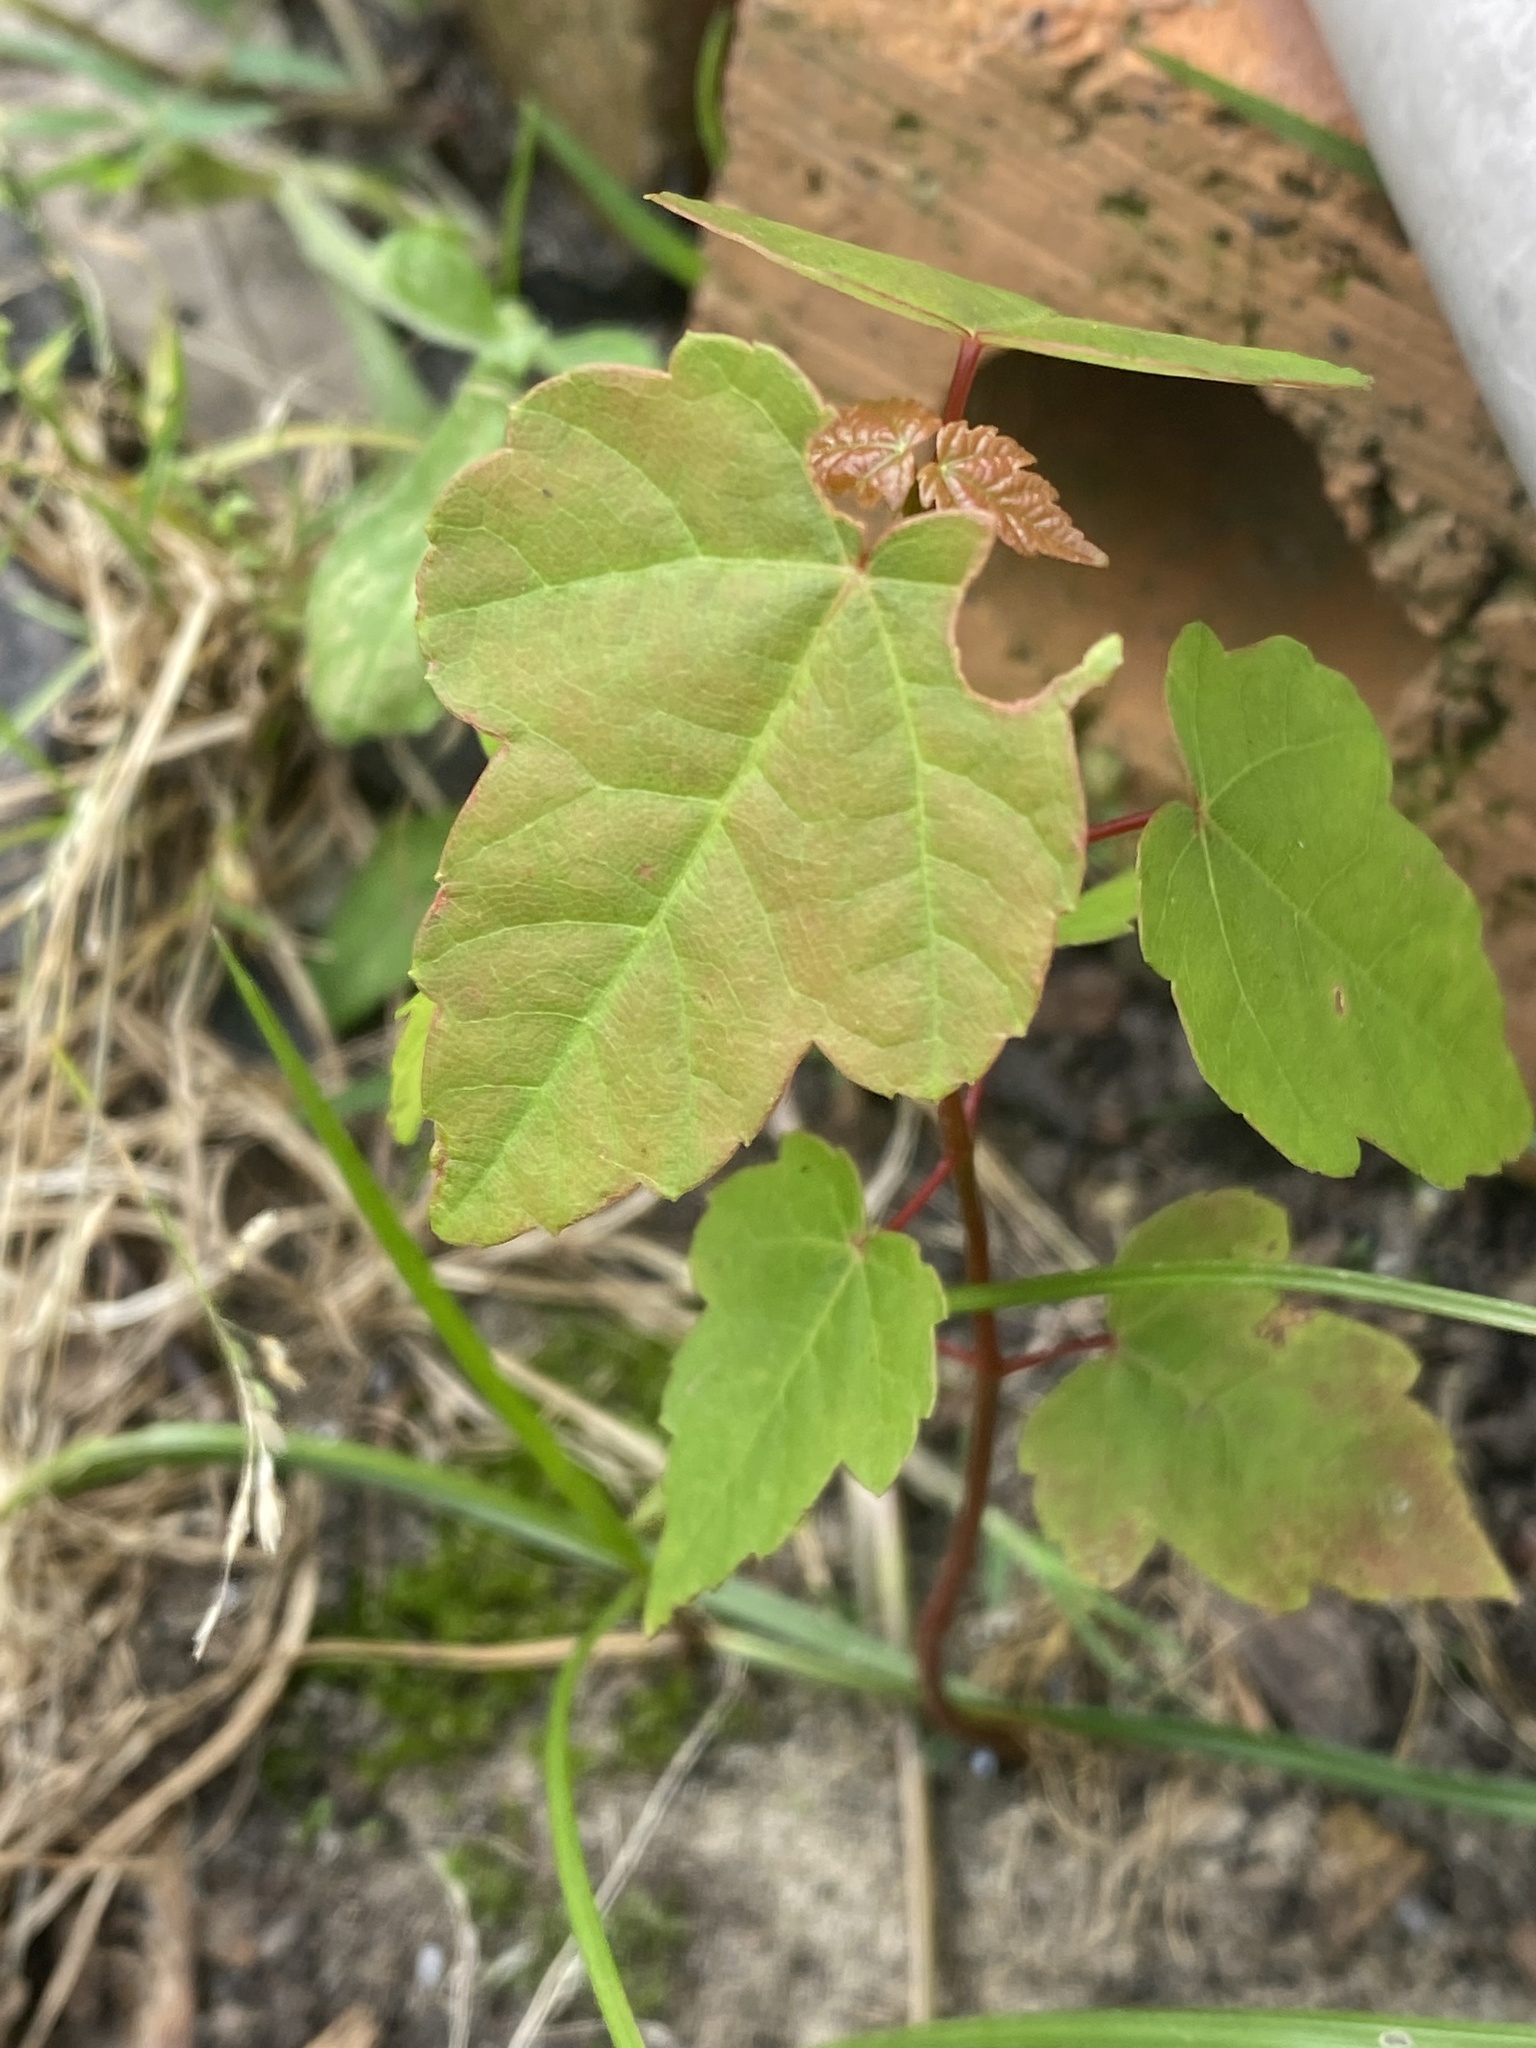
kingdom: Plantae
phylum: Tracheophyta
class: Magnoliopsida
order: Sapindales
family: Sapindaceae
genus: Acer
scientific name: Acer rubrum
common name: Red maple
